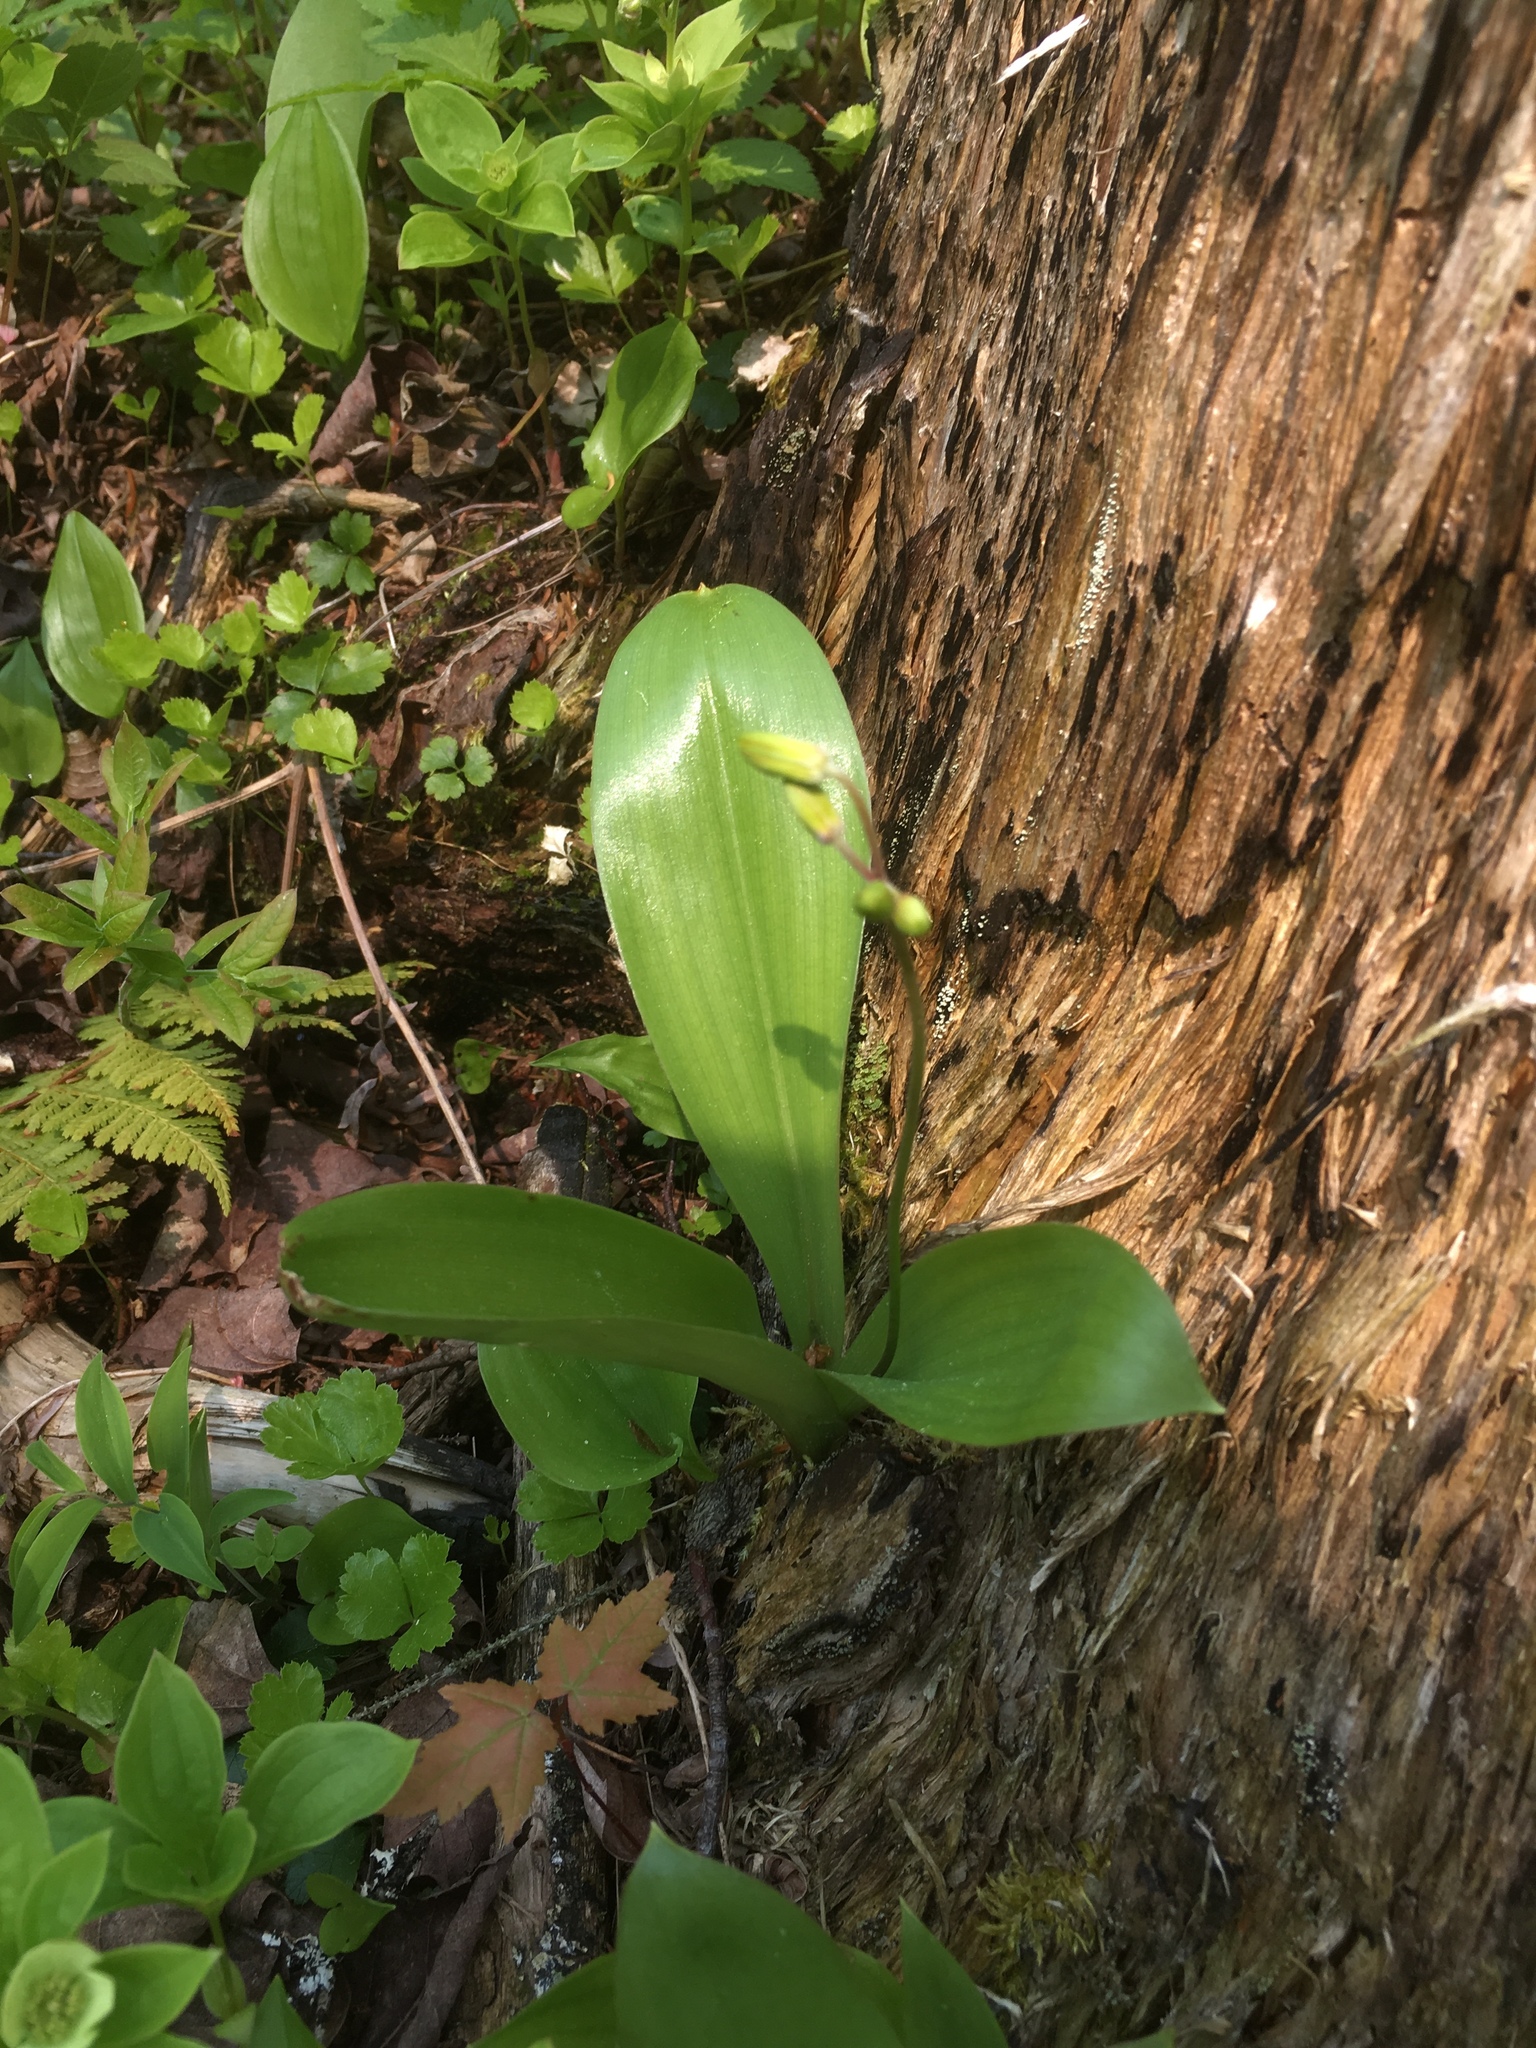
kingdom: Plantae
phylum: Tracheophyta
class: Liliopsida
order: Liliales
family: Liliaceae
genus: Clintonia
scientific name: Clintonia borealis
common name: Yellow clintonia
